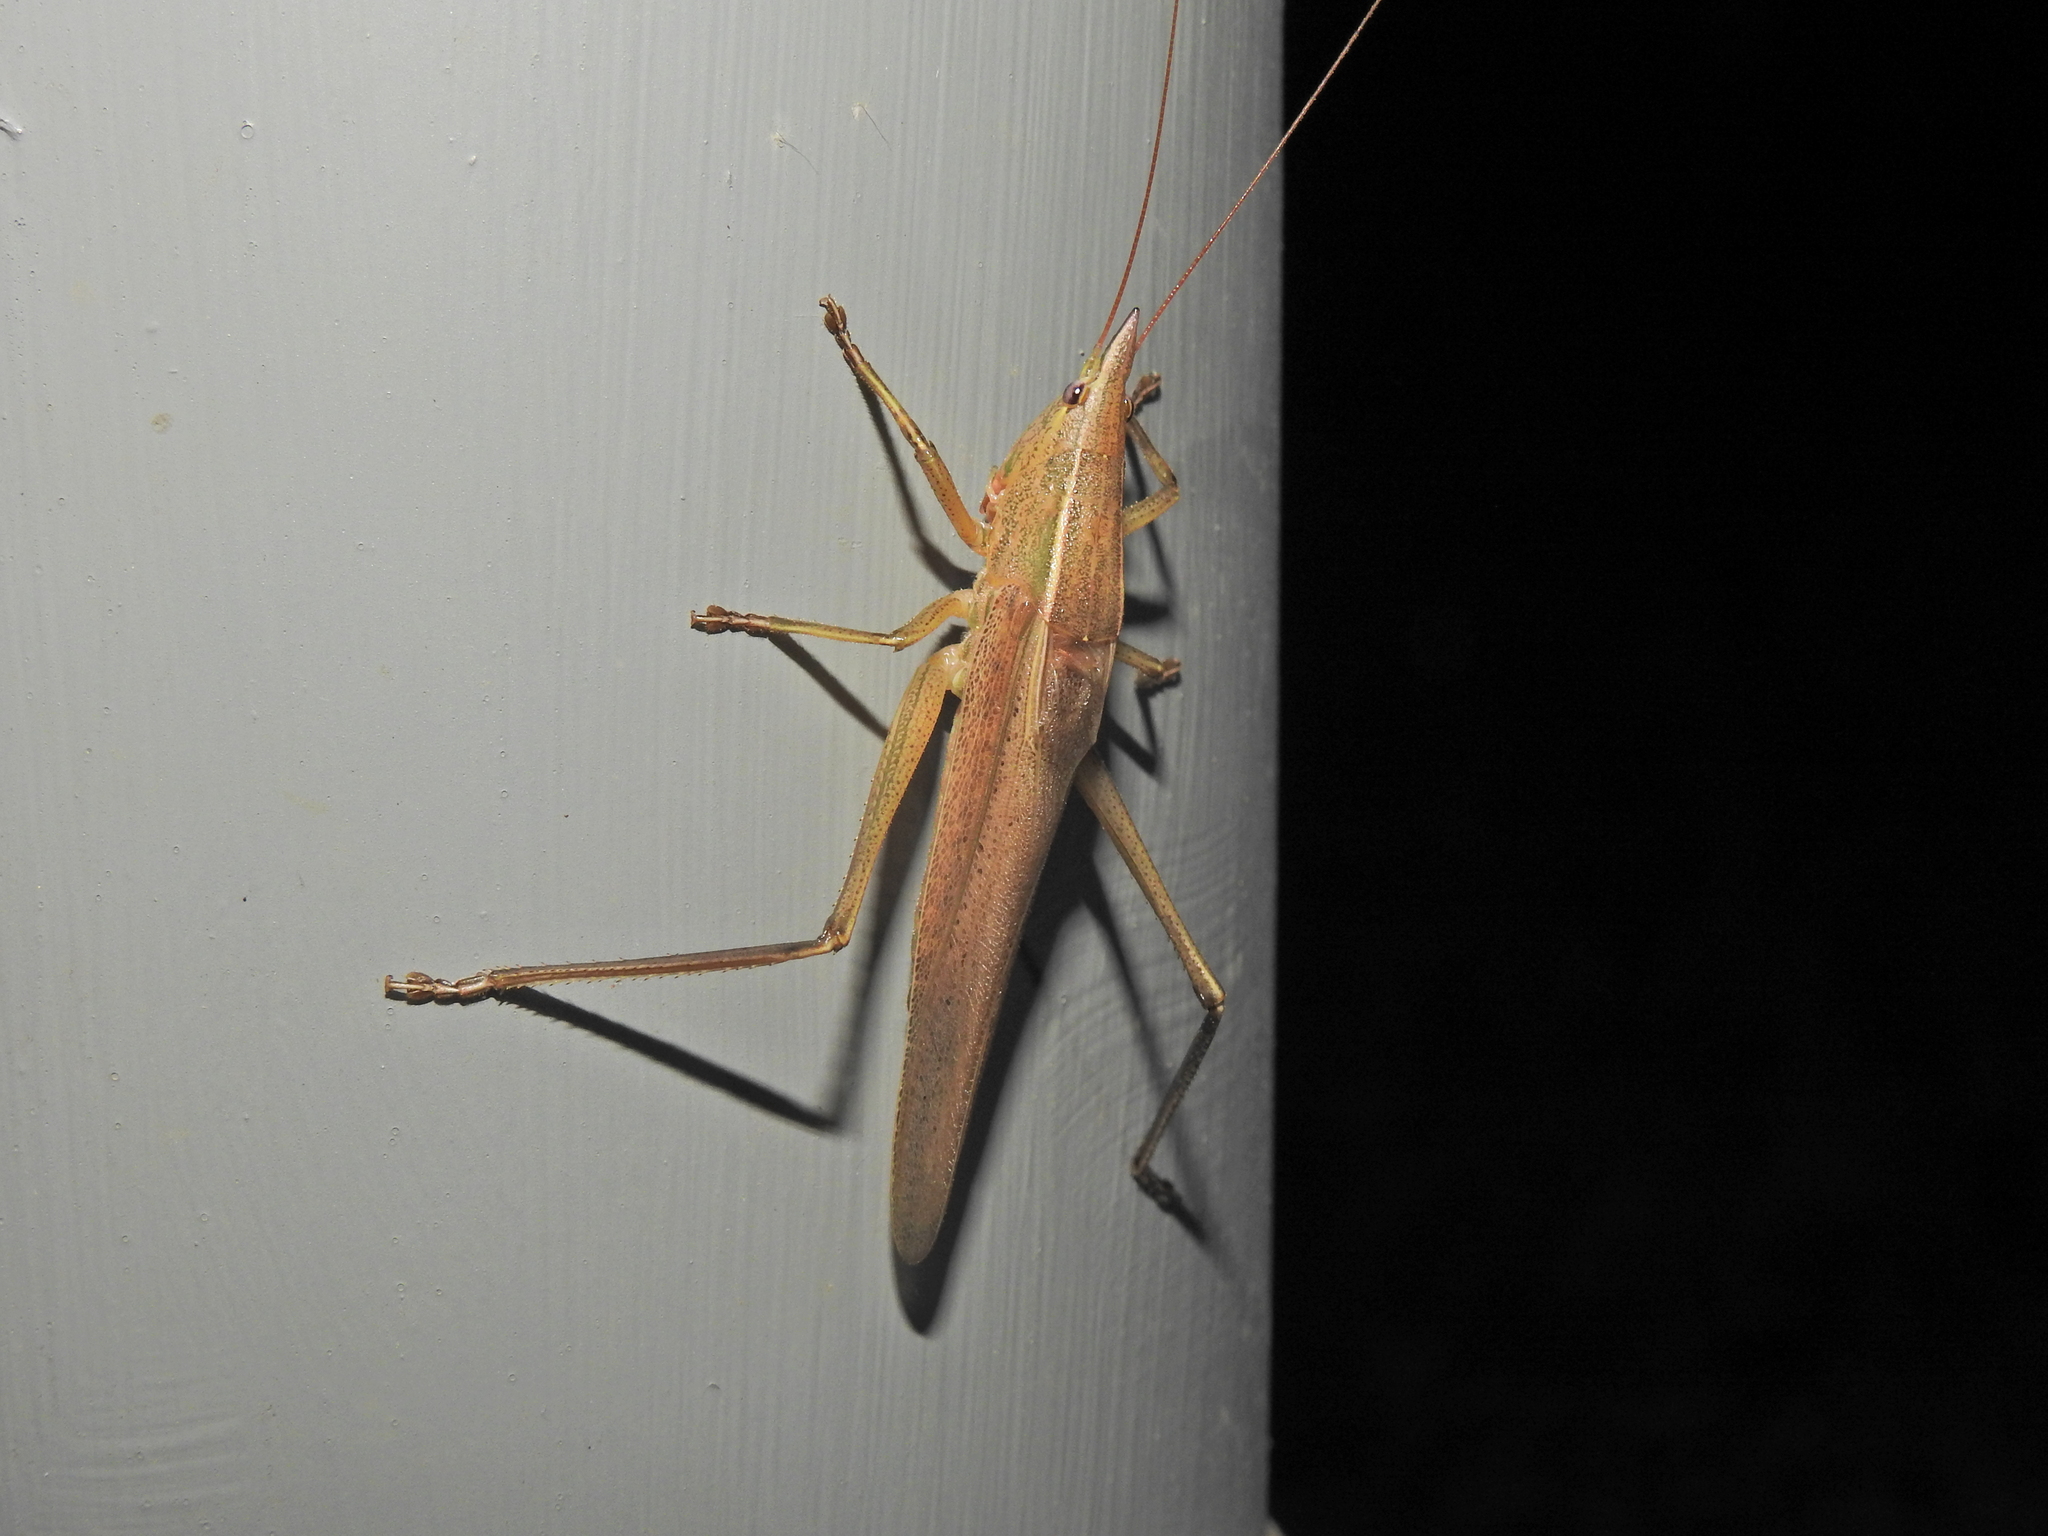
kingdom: Animalia
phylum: Arthropoda
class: Insecta
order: Orthoptera
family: Tettigoniidae
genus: Pseudorhynchus
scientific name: Pseudorhynchus mimeticus
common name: Mimicking snout-nosed katydid
